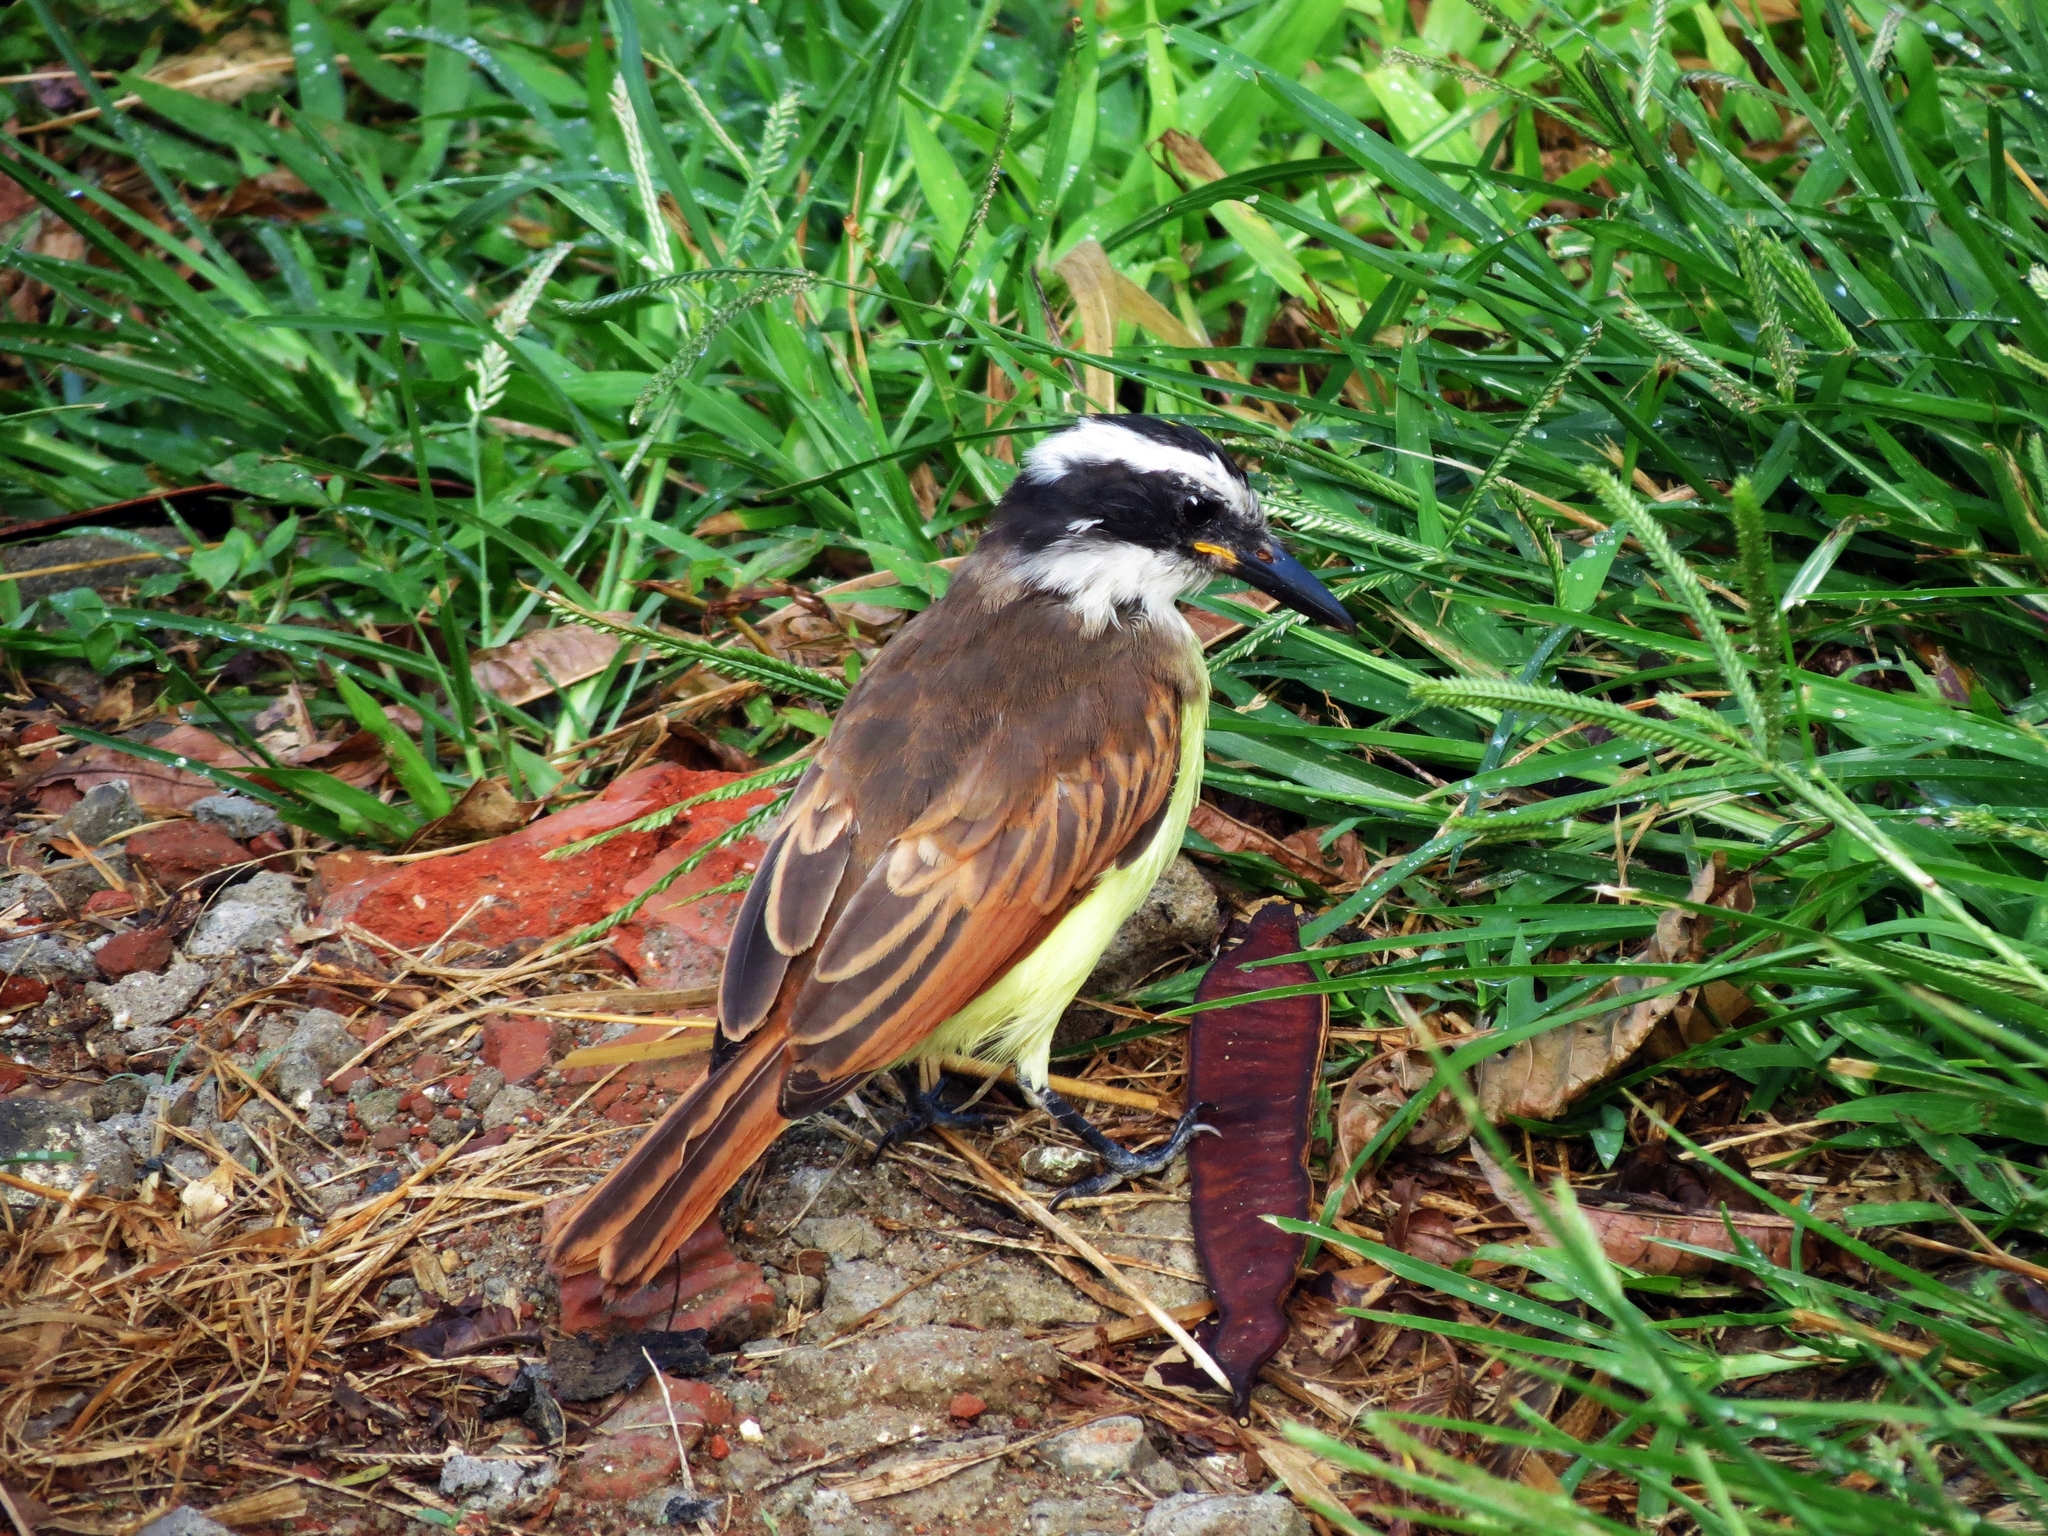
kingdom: Animalia
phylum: Chordata
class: Aves
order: Passeriformes
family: Tyrannidae
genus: Pitangus
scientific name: Pitangus sulphuratus
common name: Great kiskadee
